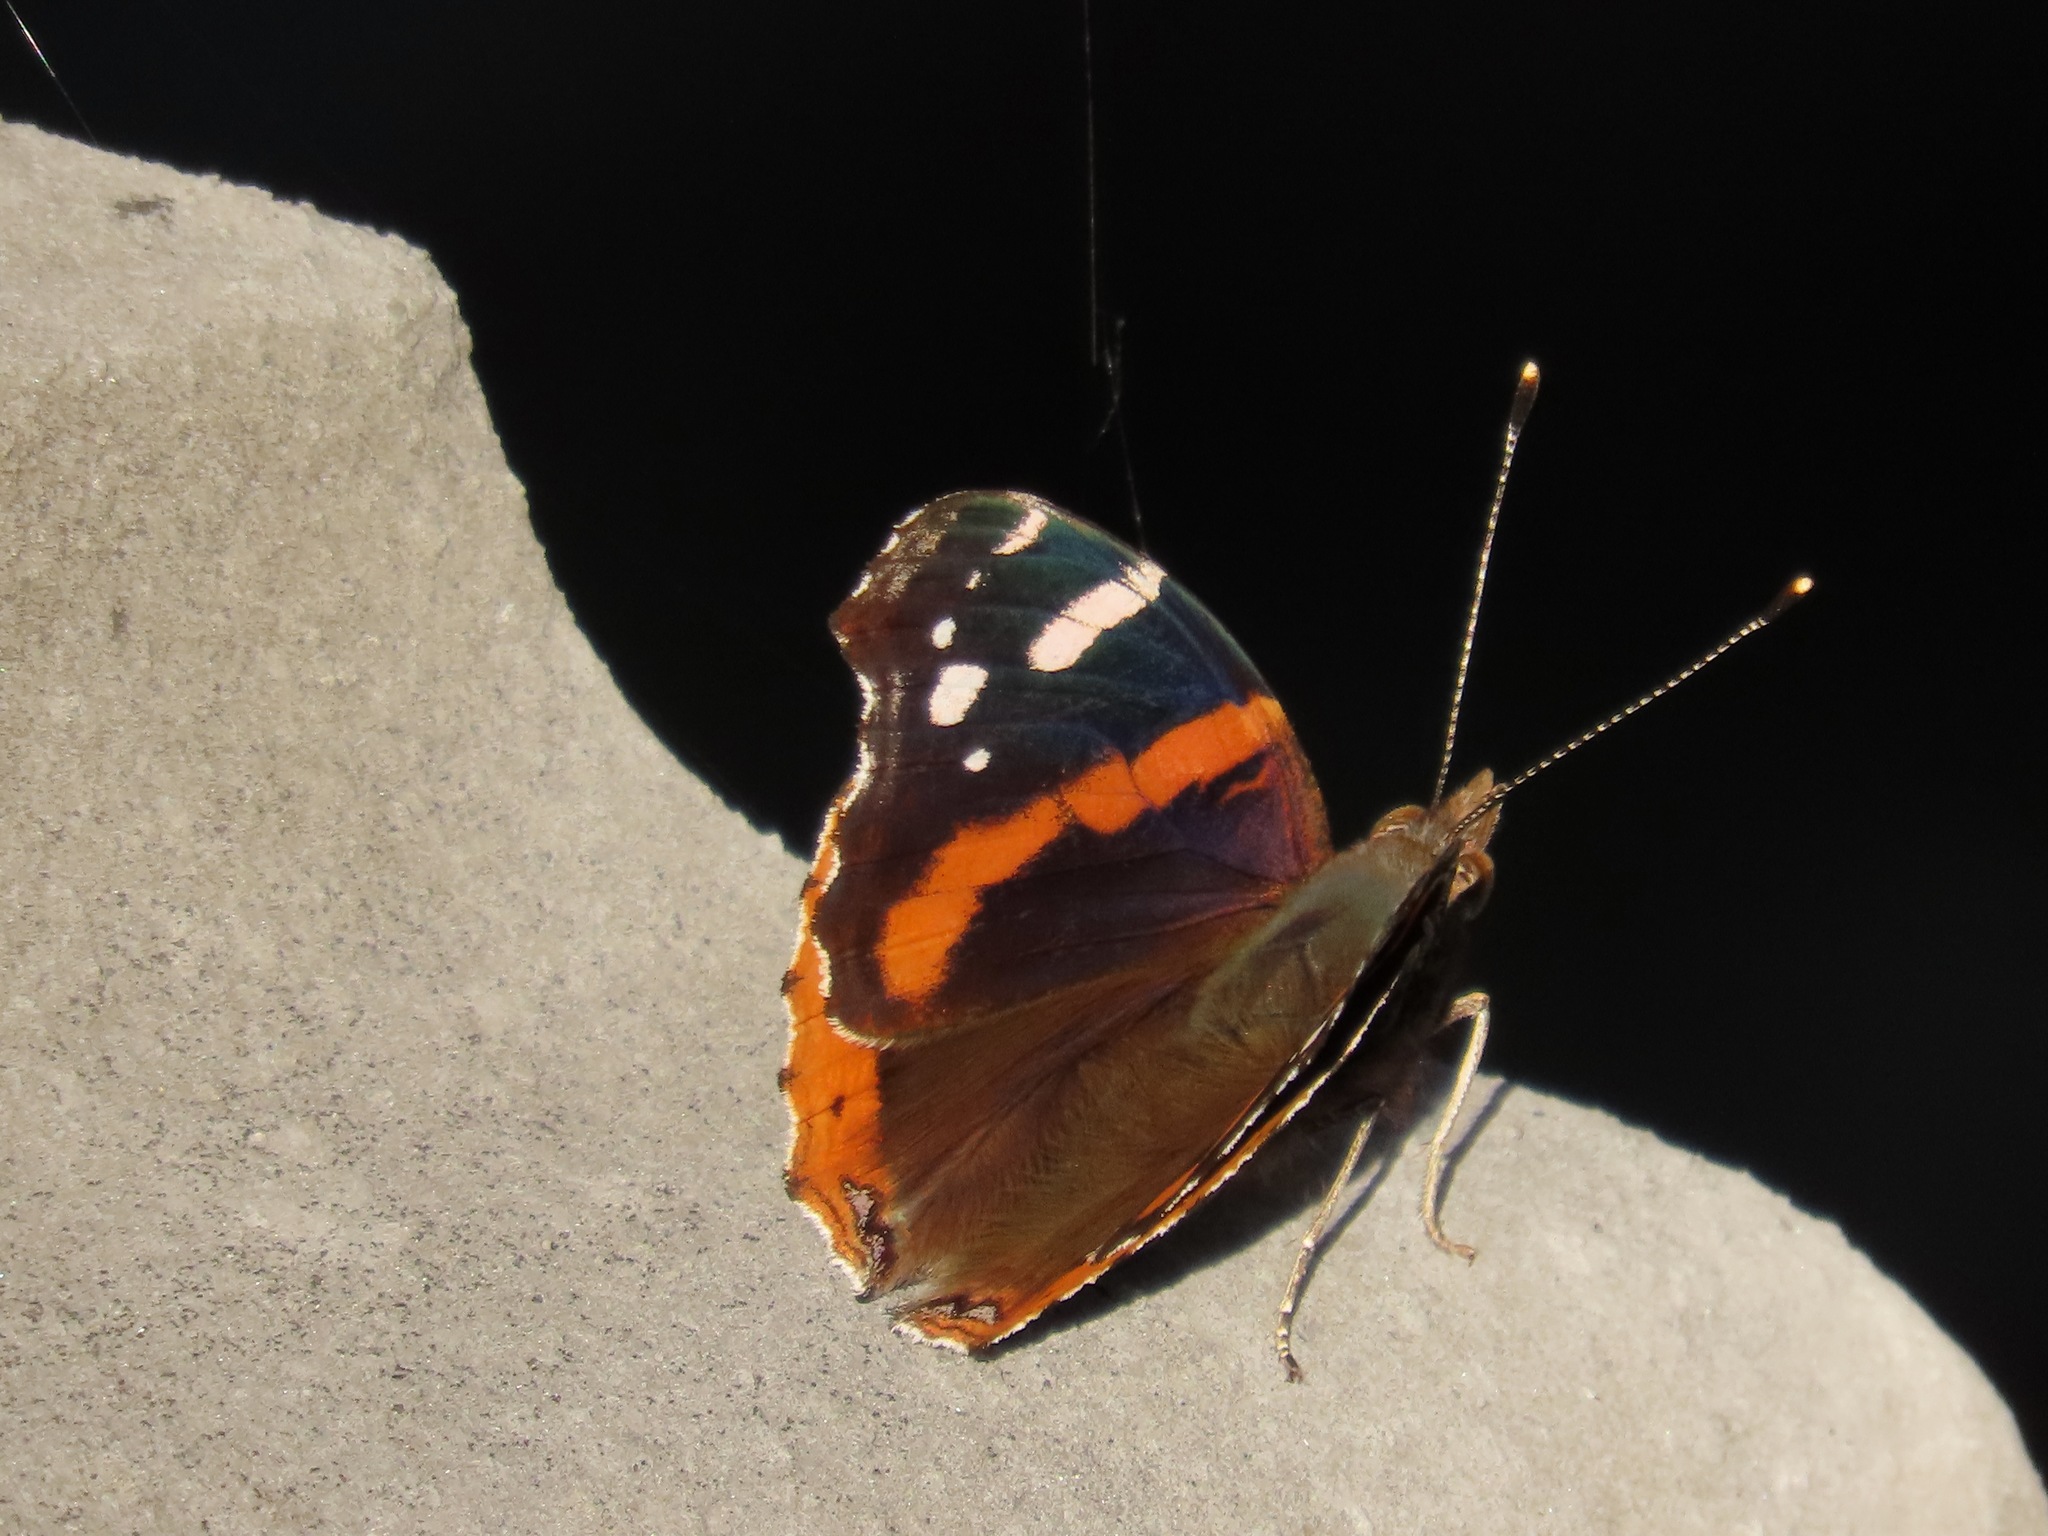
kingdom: Animalia
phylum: Arthropoda
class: Insecta
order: Lepidoptera
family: Nymphalidae
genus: Vanessa
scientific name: Vanessa atalanta
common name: Red admiral
